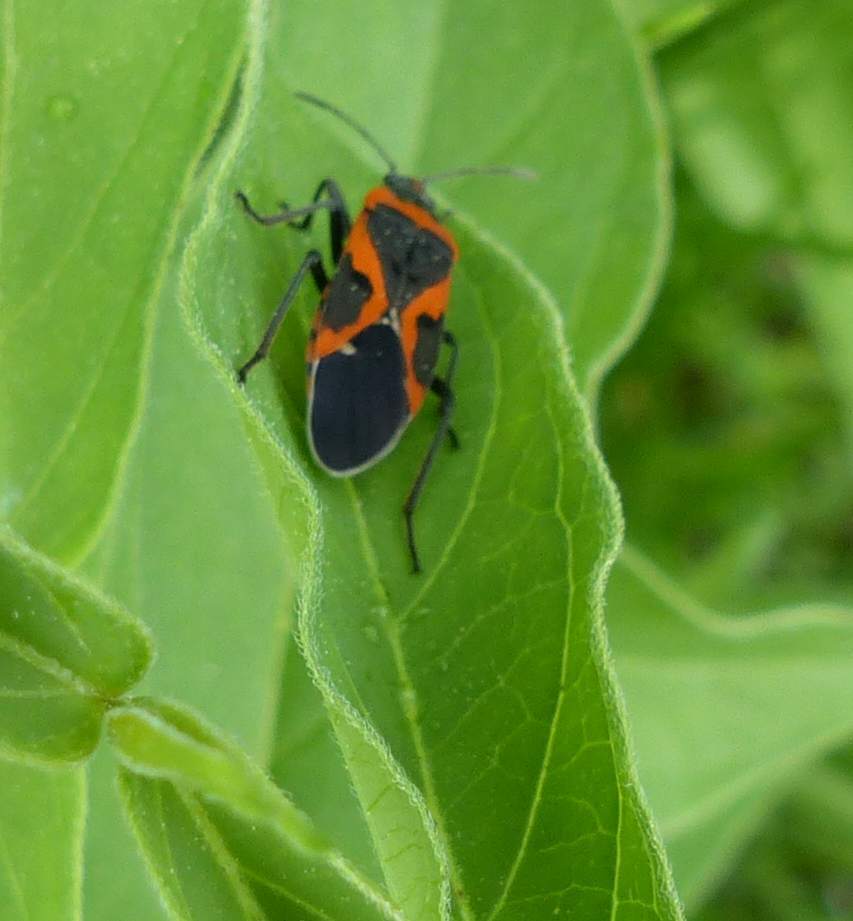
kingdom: Animalia
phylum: Arthropoda
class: Insecta
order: Hemiptera
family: Lygaeidae
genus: Lygaeus
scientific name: Lygaeus kalmii
